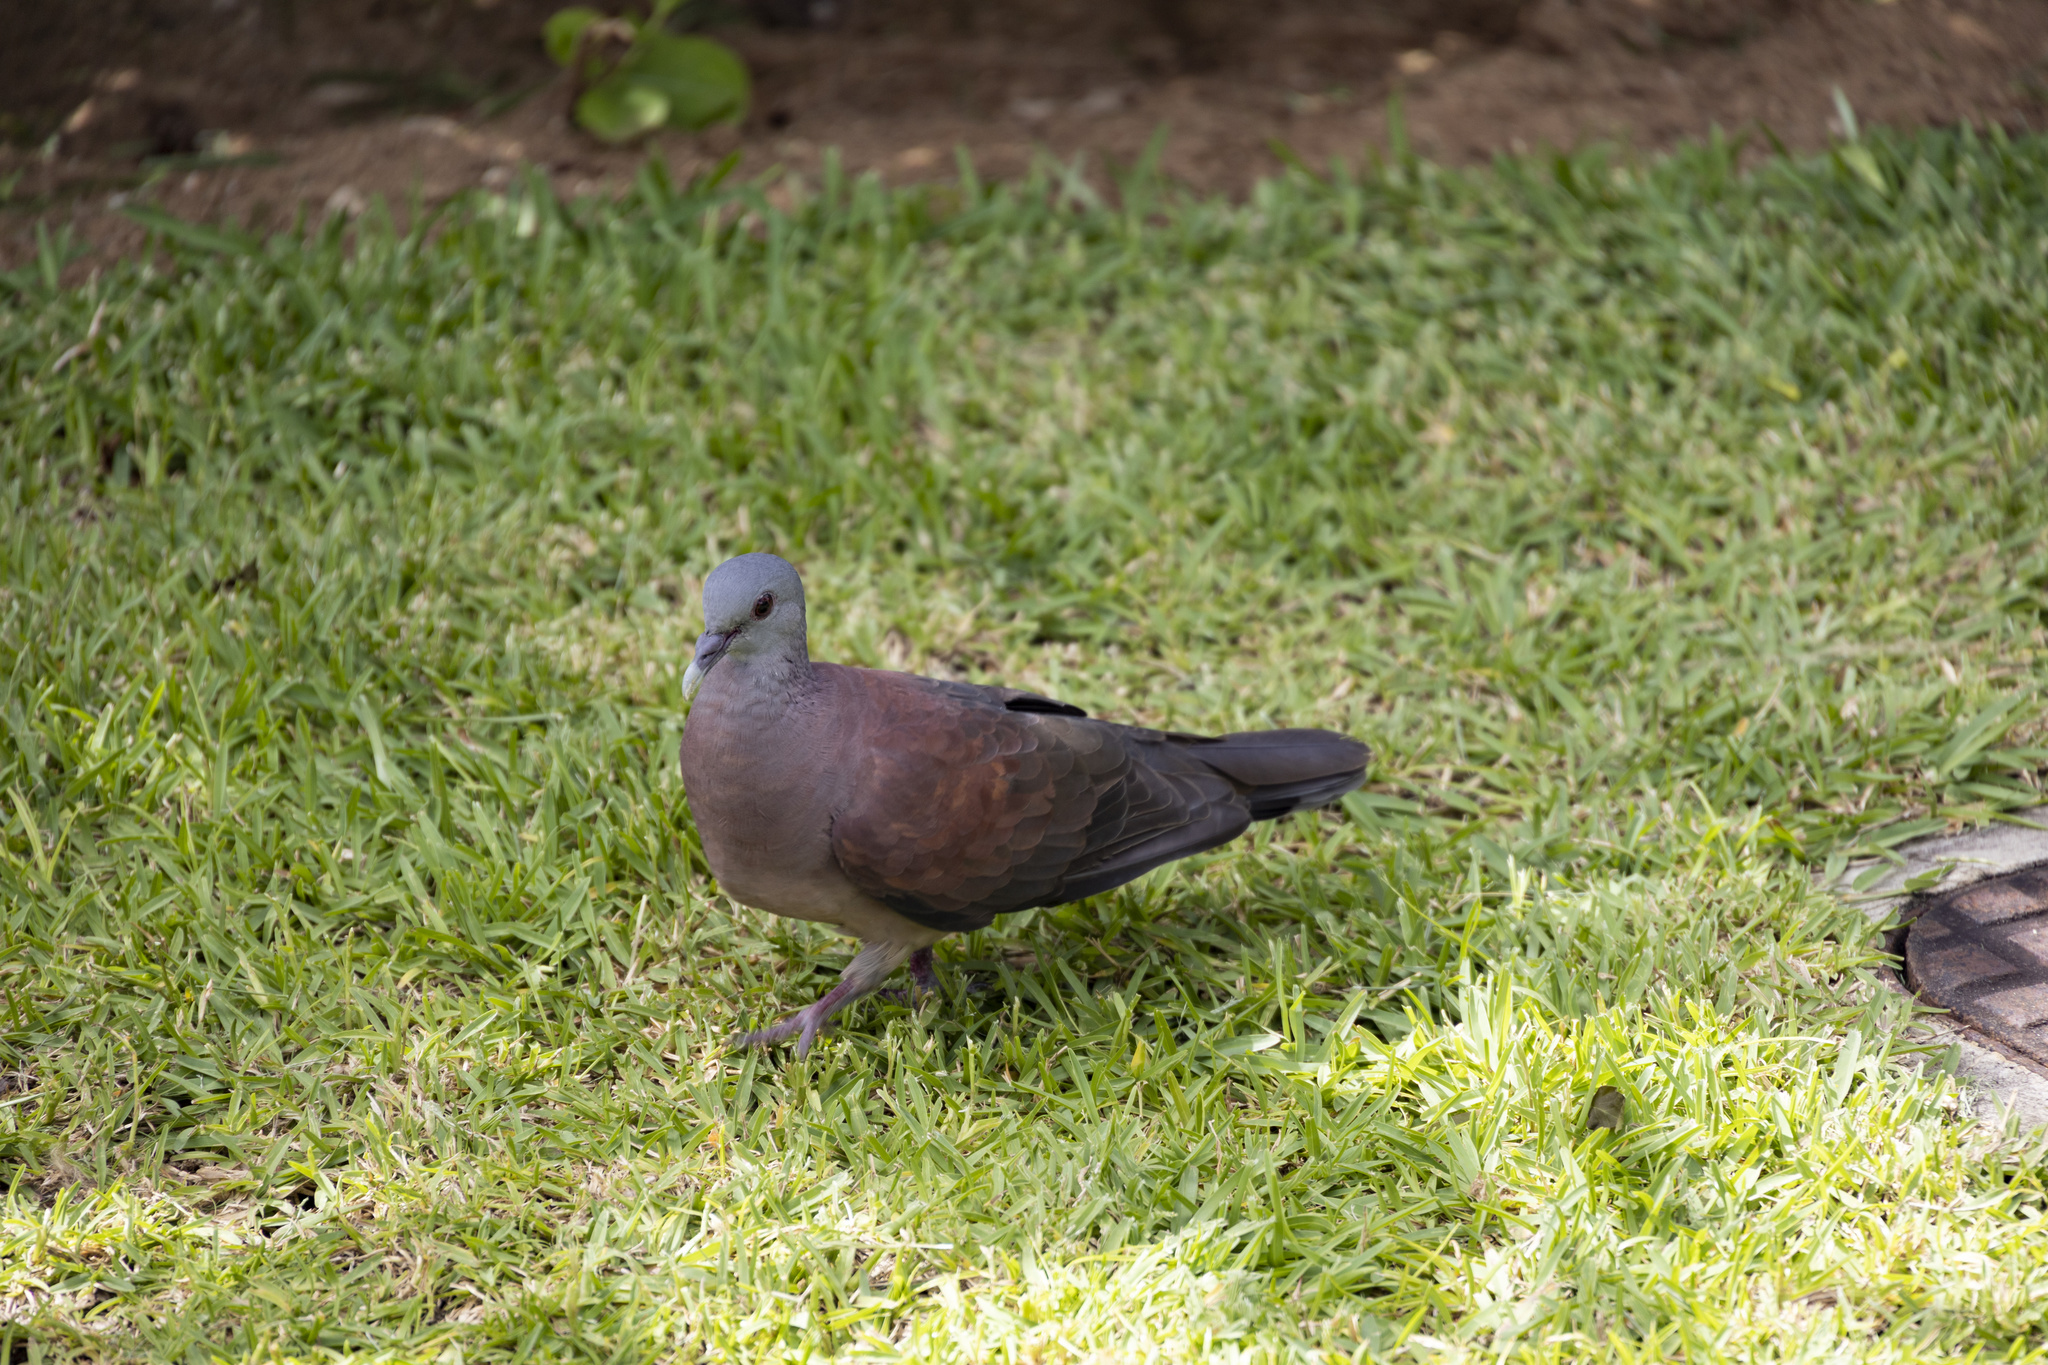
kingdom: Animalia
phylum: Chordata
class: Aves
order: Columbiformes
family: Columbidae
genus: Nesoenas
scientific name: Nesoenas picturatus
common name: Malagasy turtle dove
